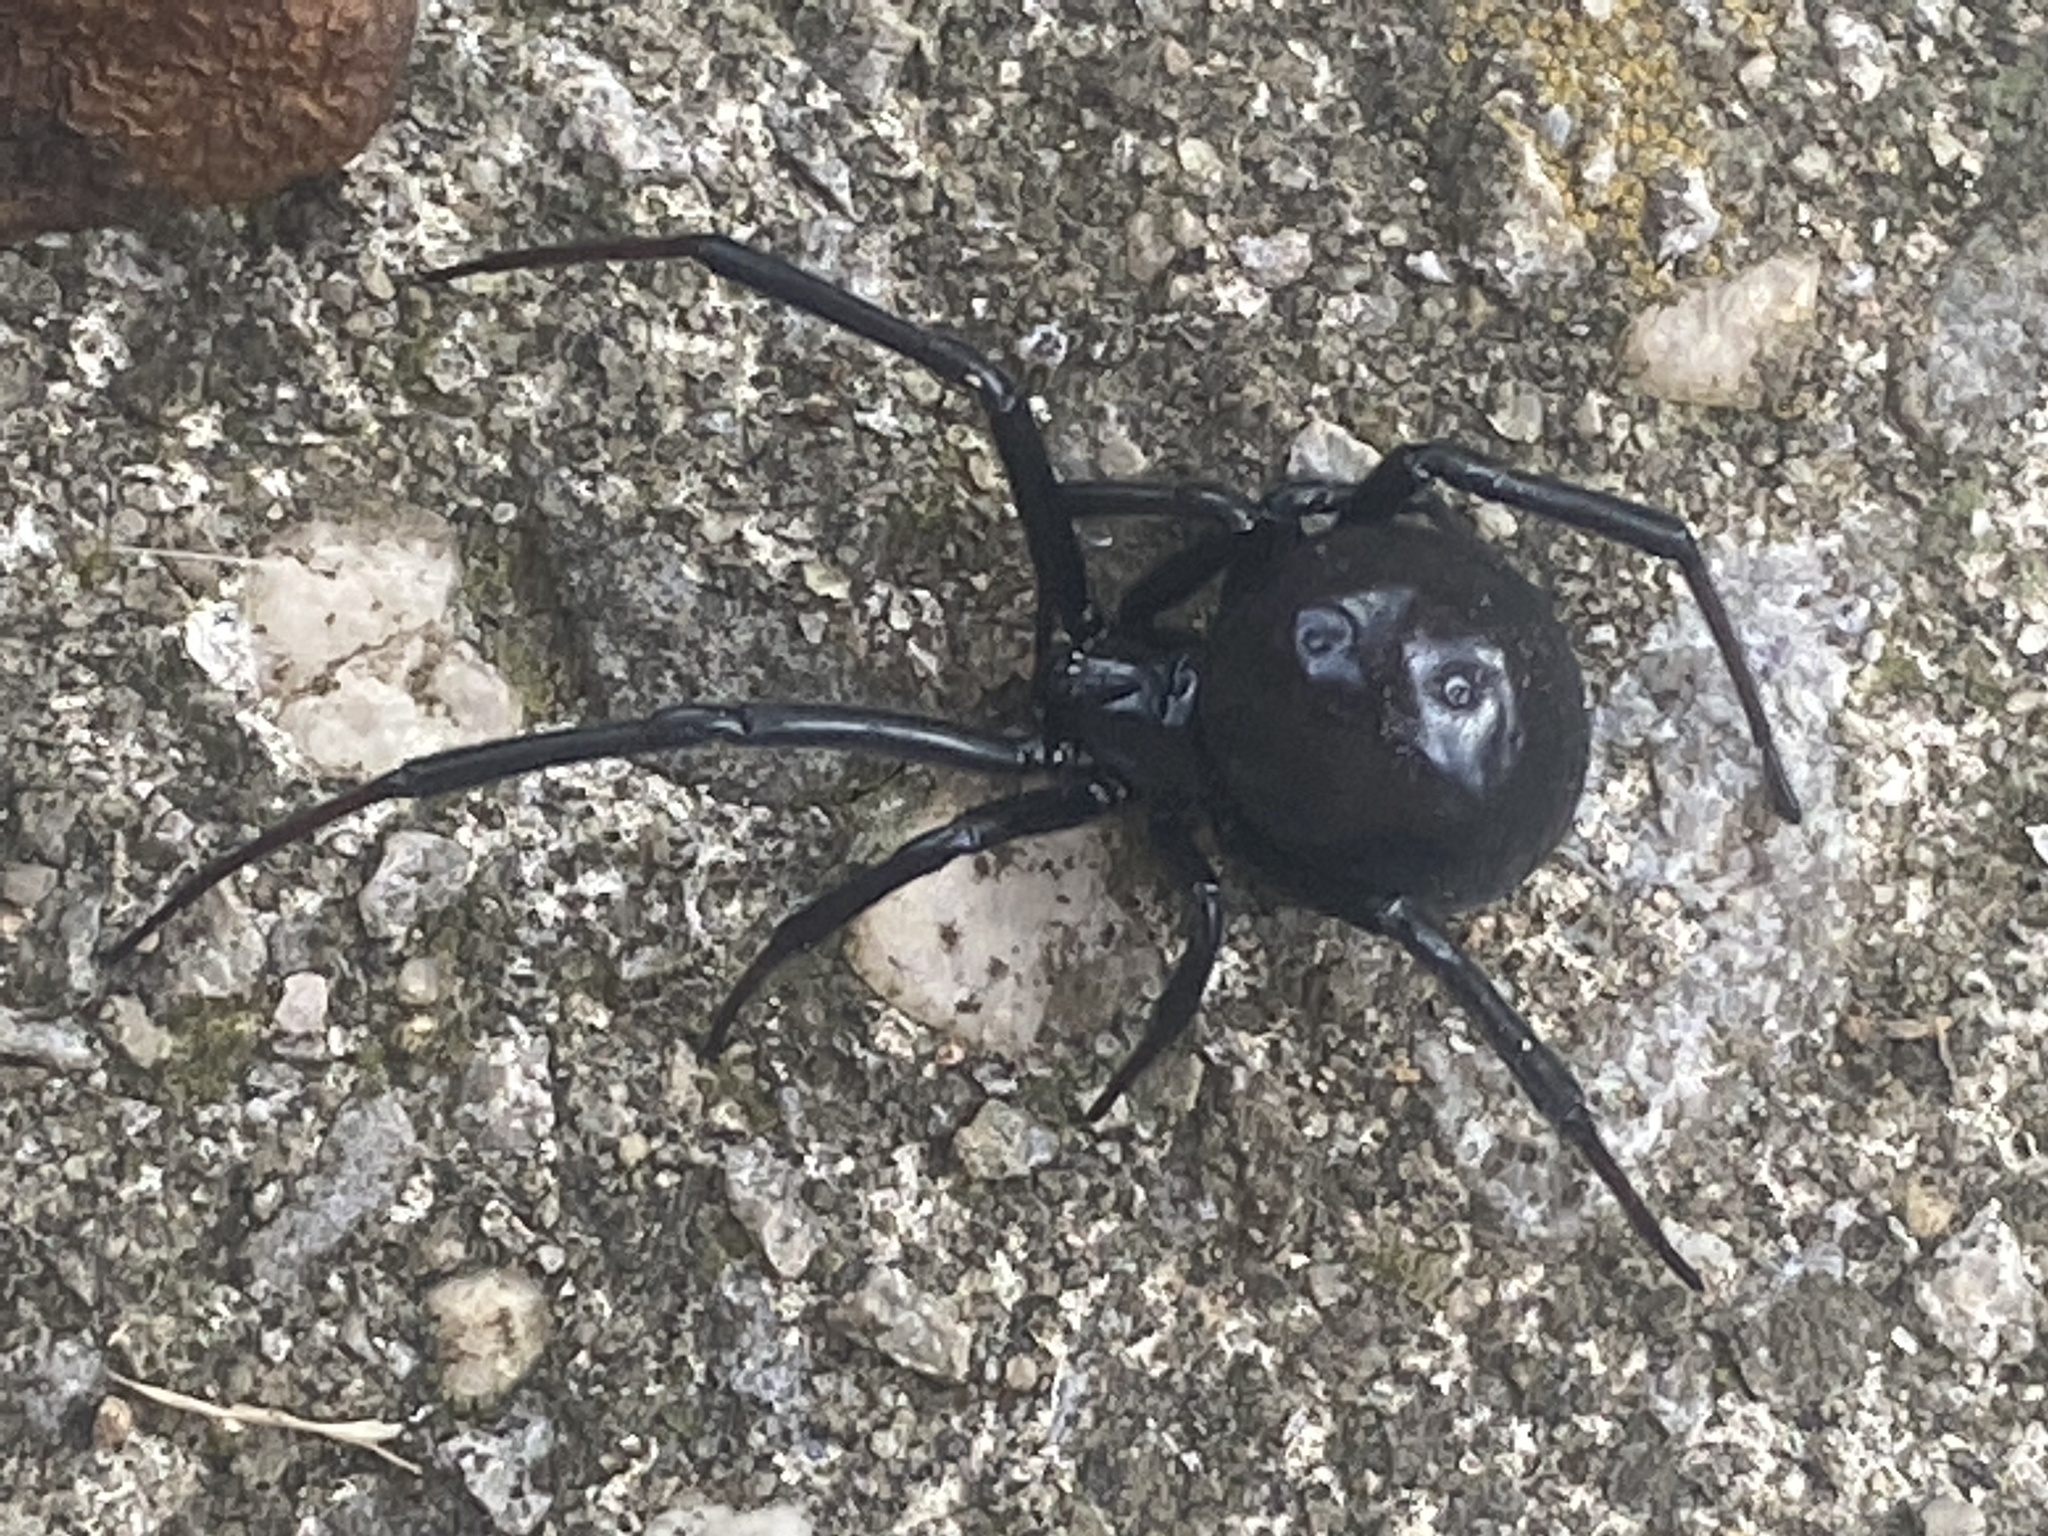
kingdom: Animalia
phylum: Arthropoda
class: Arachnida
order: Araneae
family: Theridiidae
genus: Latrodectus
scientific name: Latrodectus mactans
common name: Cobweb spiders
